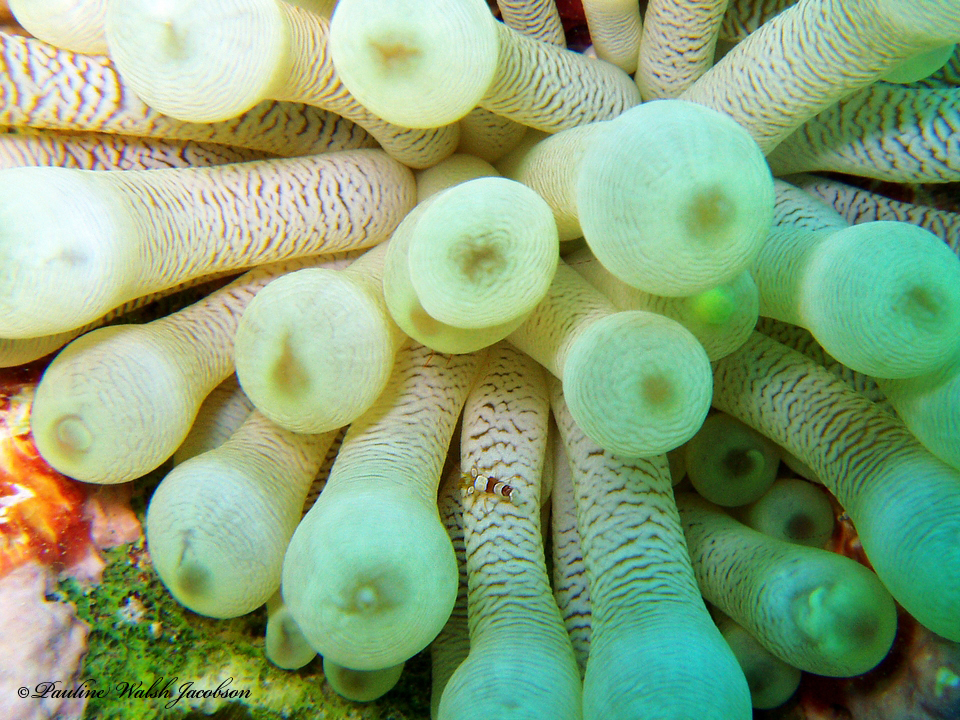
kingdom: Animalia
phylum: Cnidaria
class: Anthozoa
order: Actiniaria
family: Actiniidae
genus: Condylactis
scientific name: Condylactis gigantea
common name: Giant caribbean anemone
